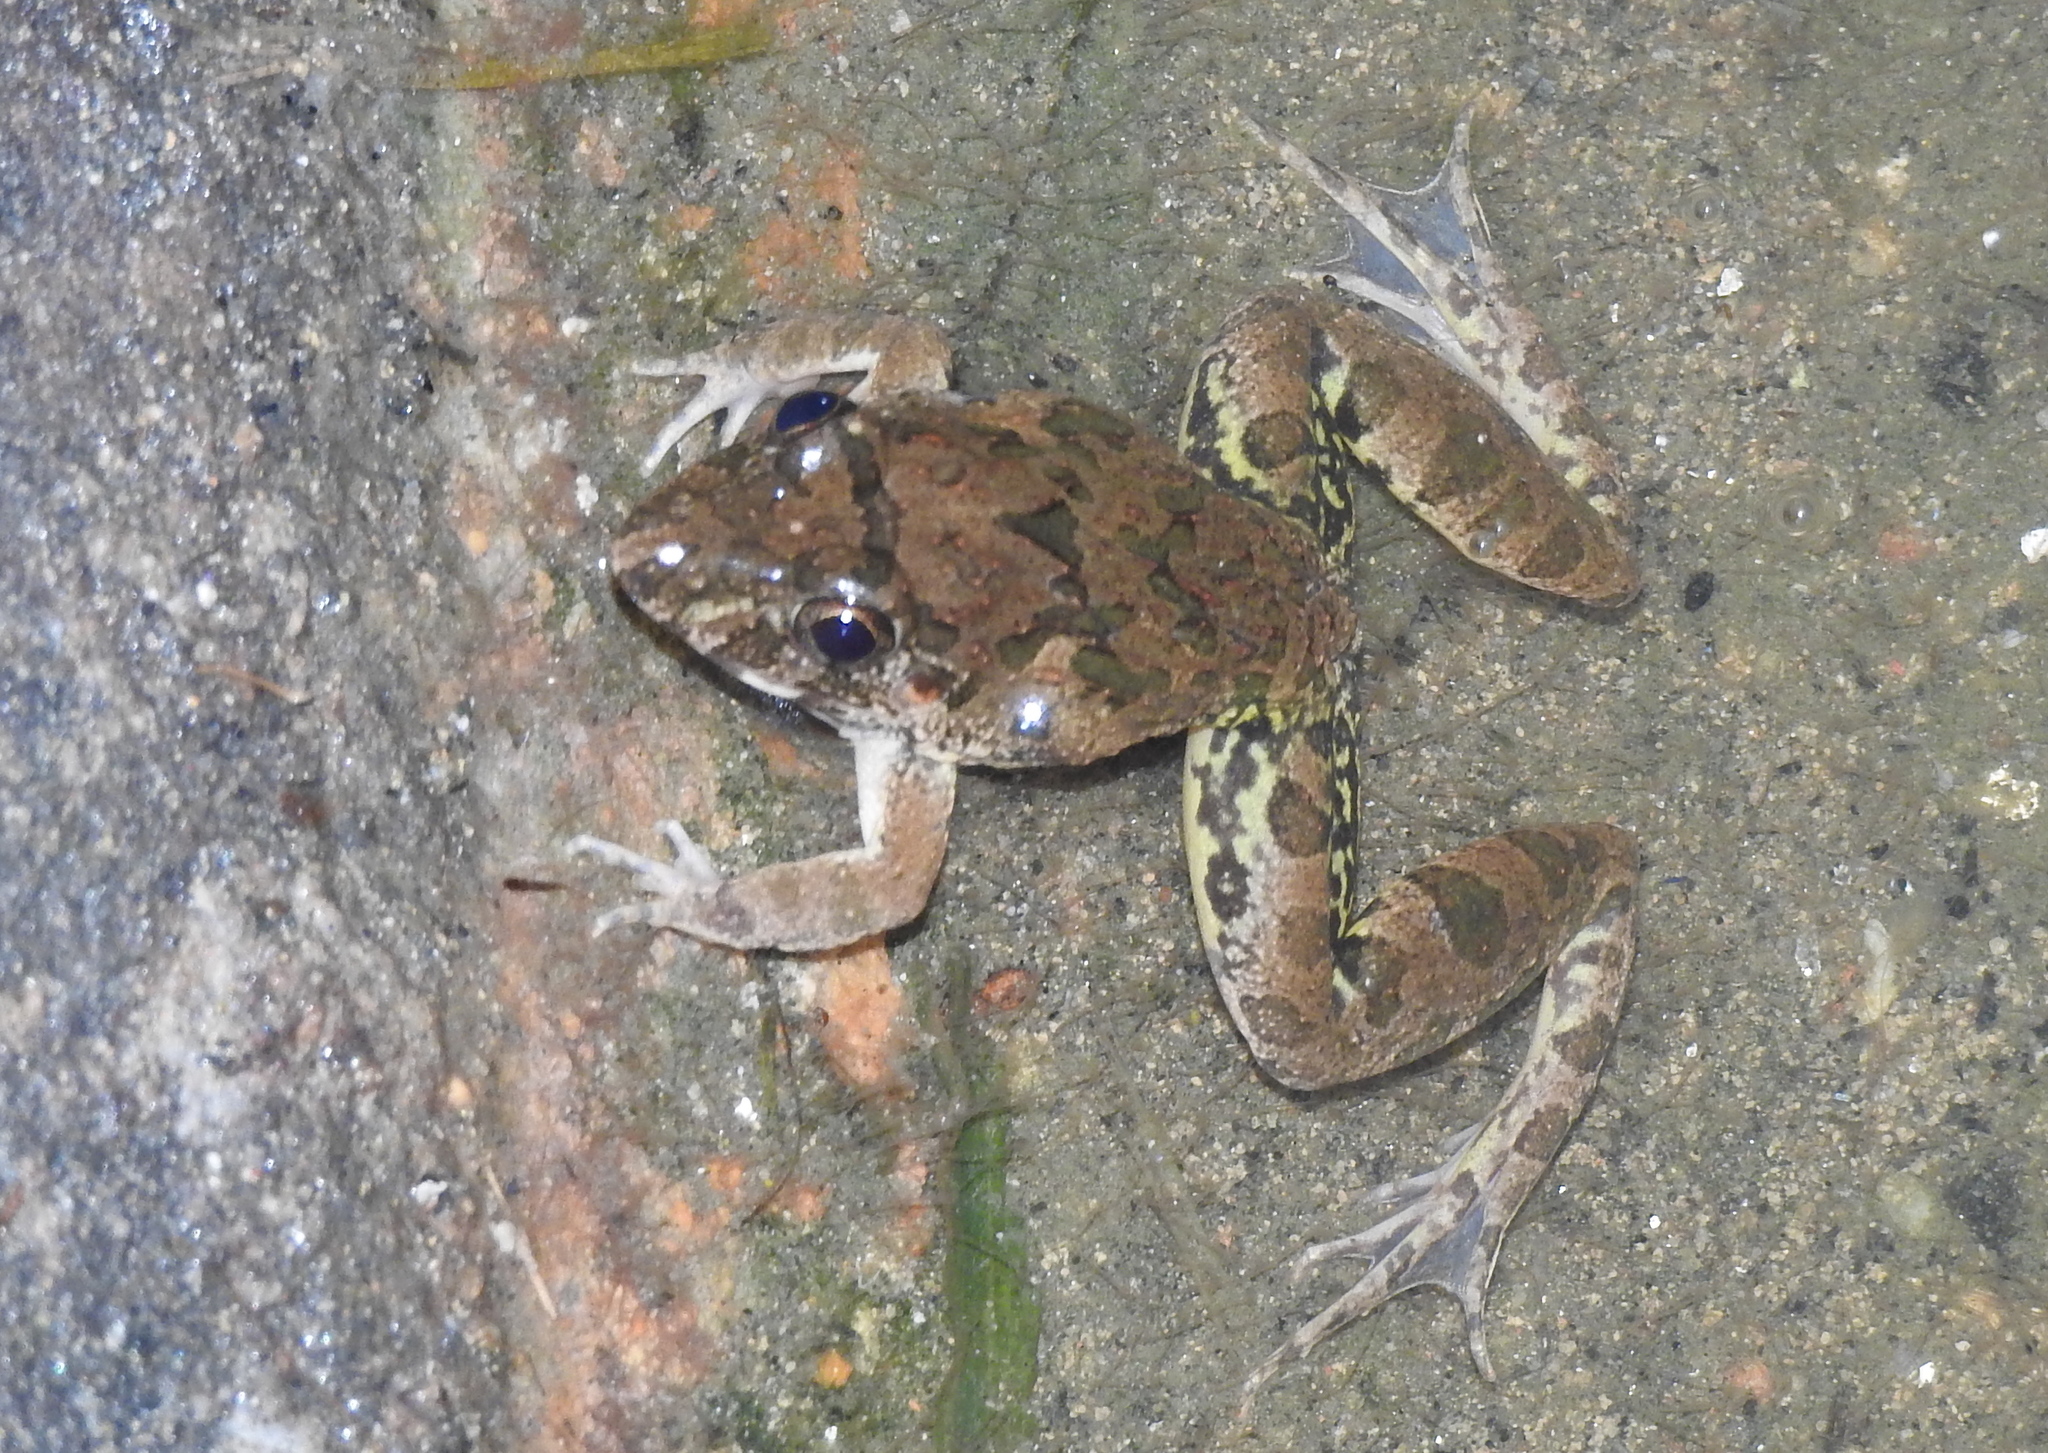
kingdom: Animalia
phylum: Chordata
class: Amphibia
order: Anura
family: Dicroglossidae
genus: Fejervarya
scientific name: Fejervarya limnocharis
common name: Asian grass frog/common pond frog/field frog/grass frog/indian rice frog
